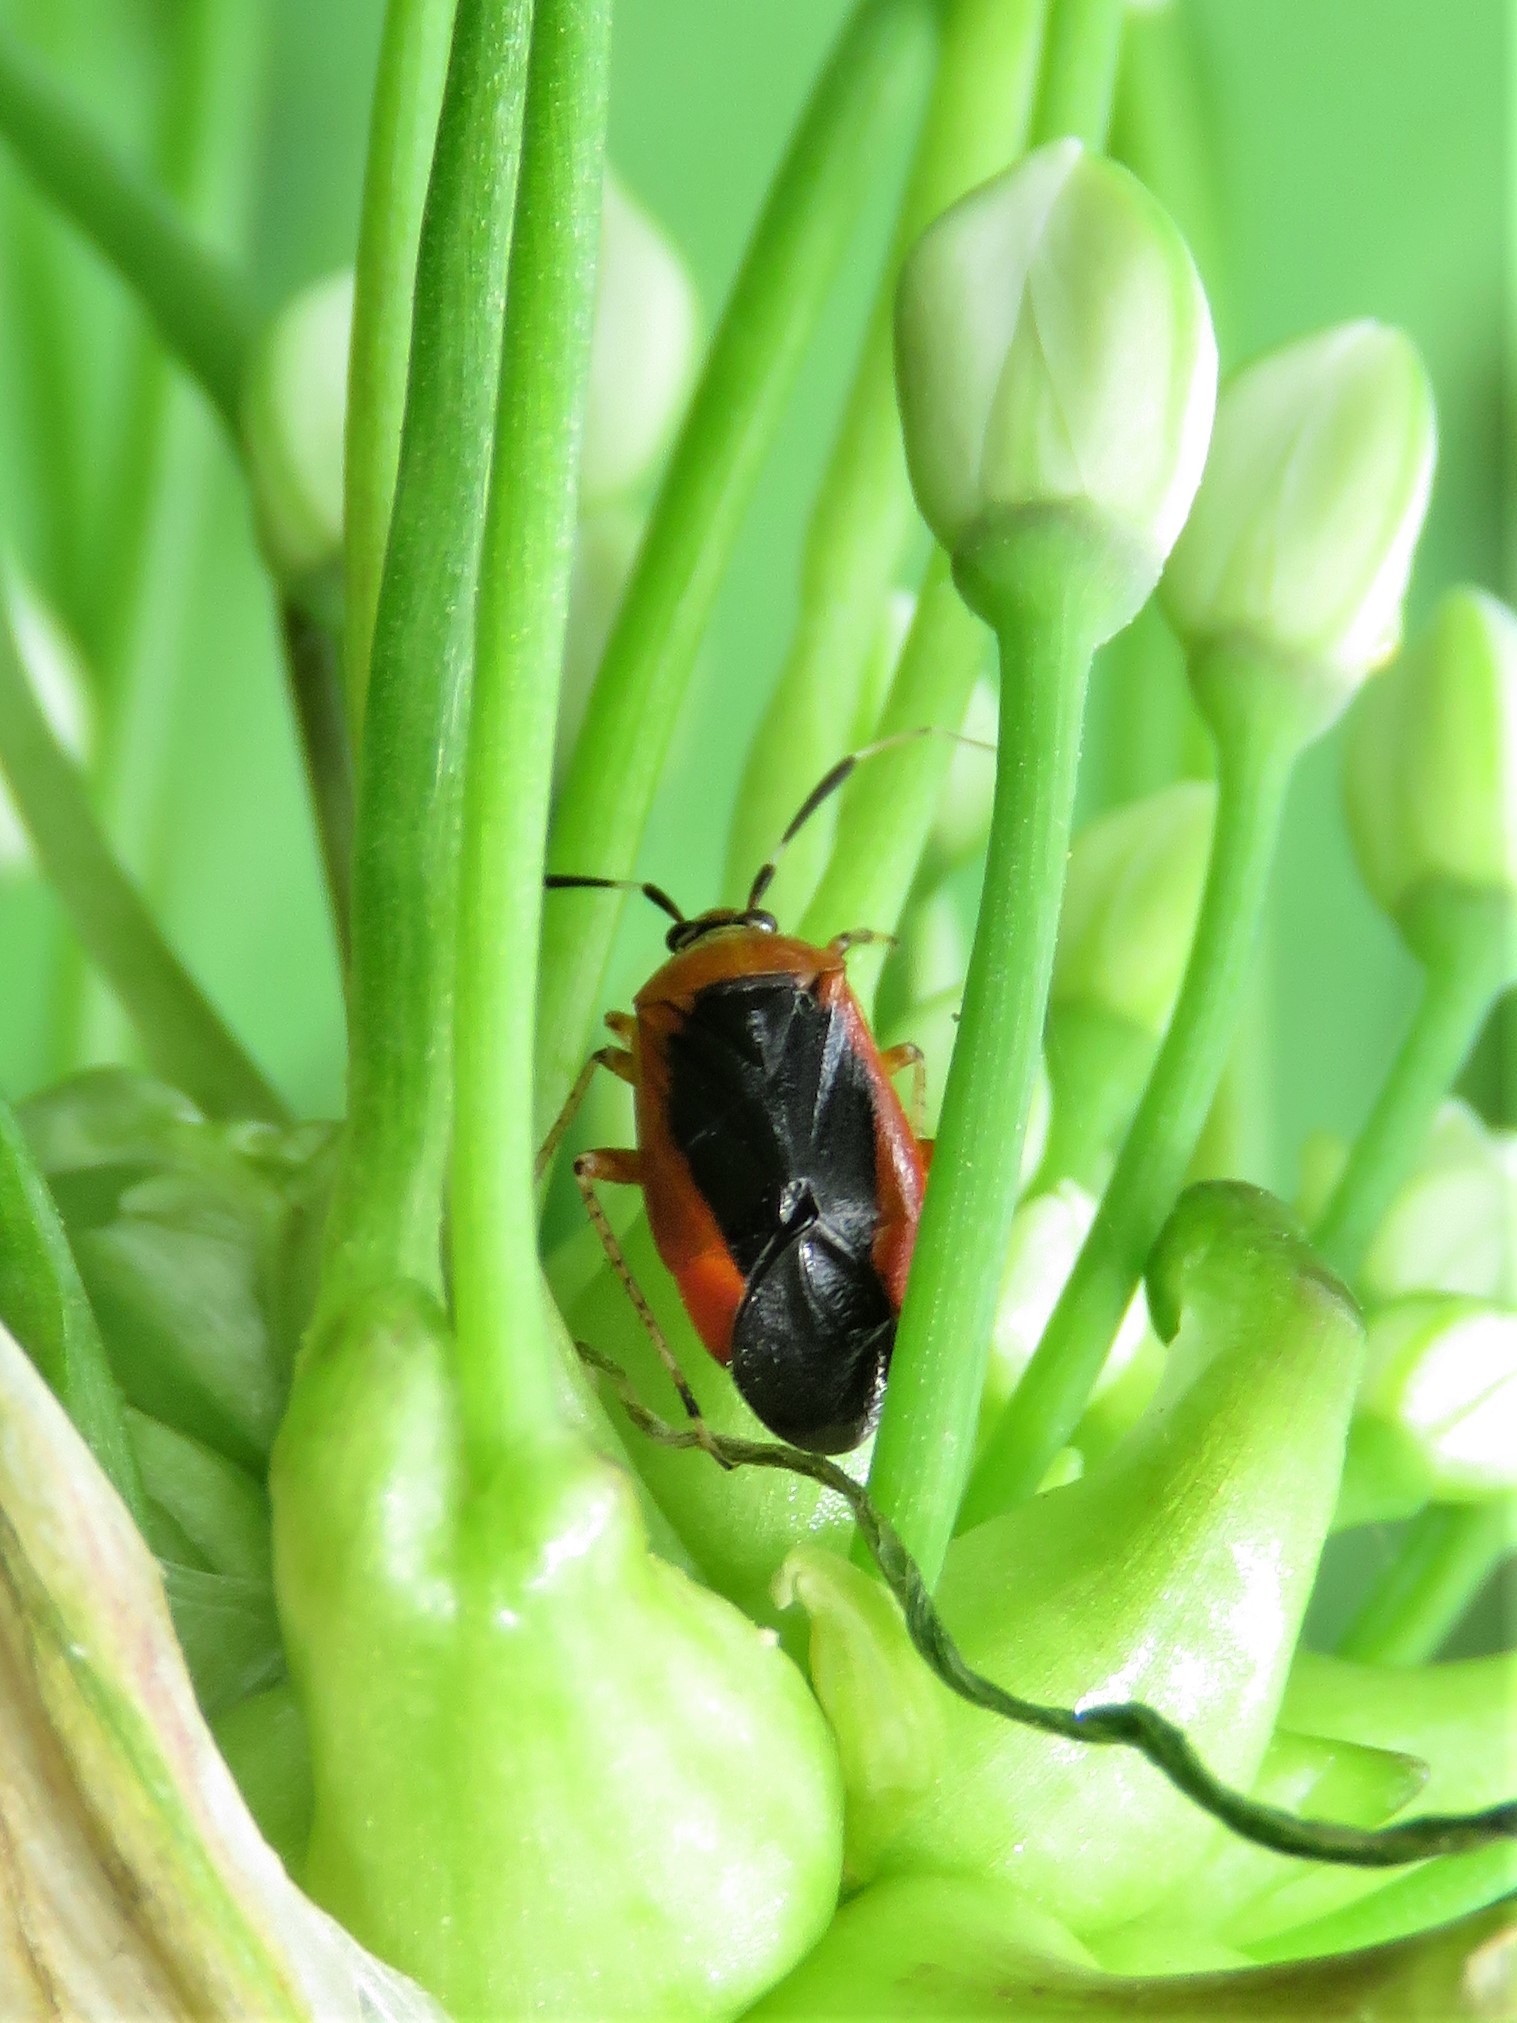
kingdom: Animalia
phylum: Arthropoda
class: Insecta
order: Hemiptera
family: Miridae
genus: Metriorrhynchomiris
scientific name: Metriorrhynchomiris dislocatus
